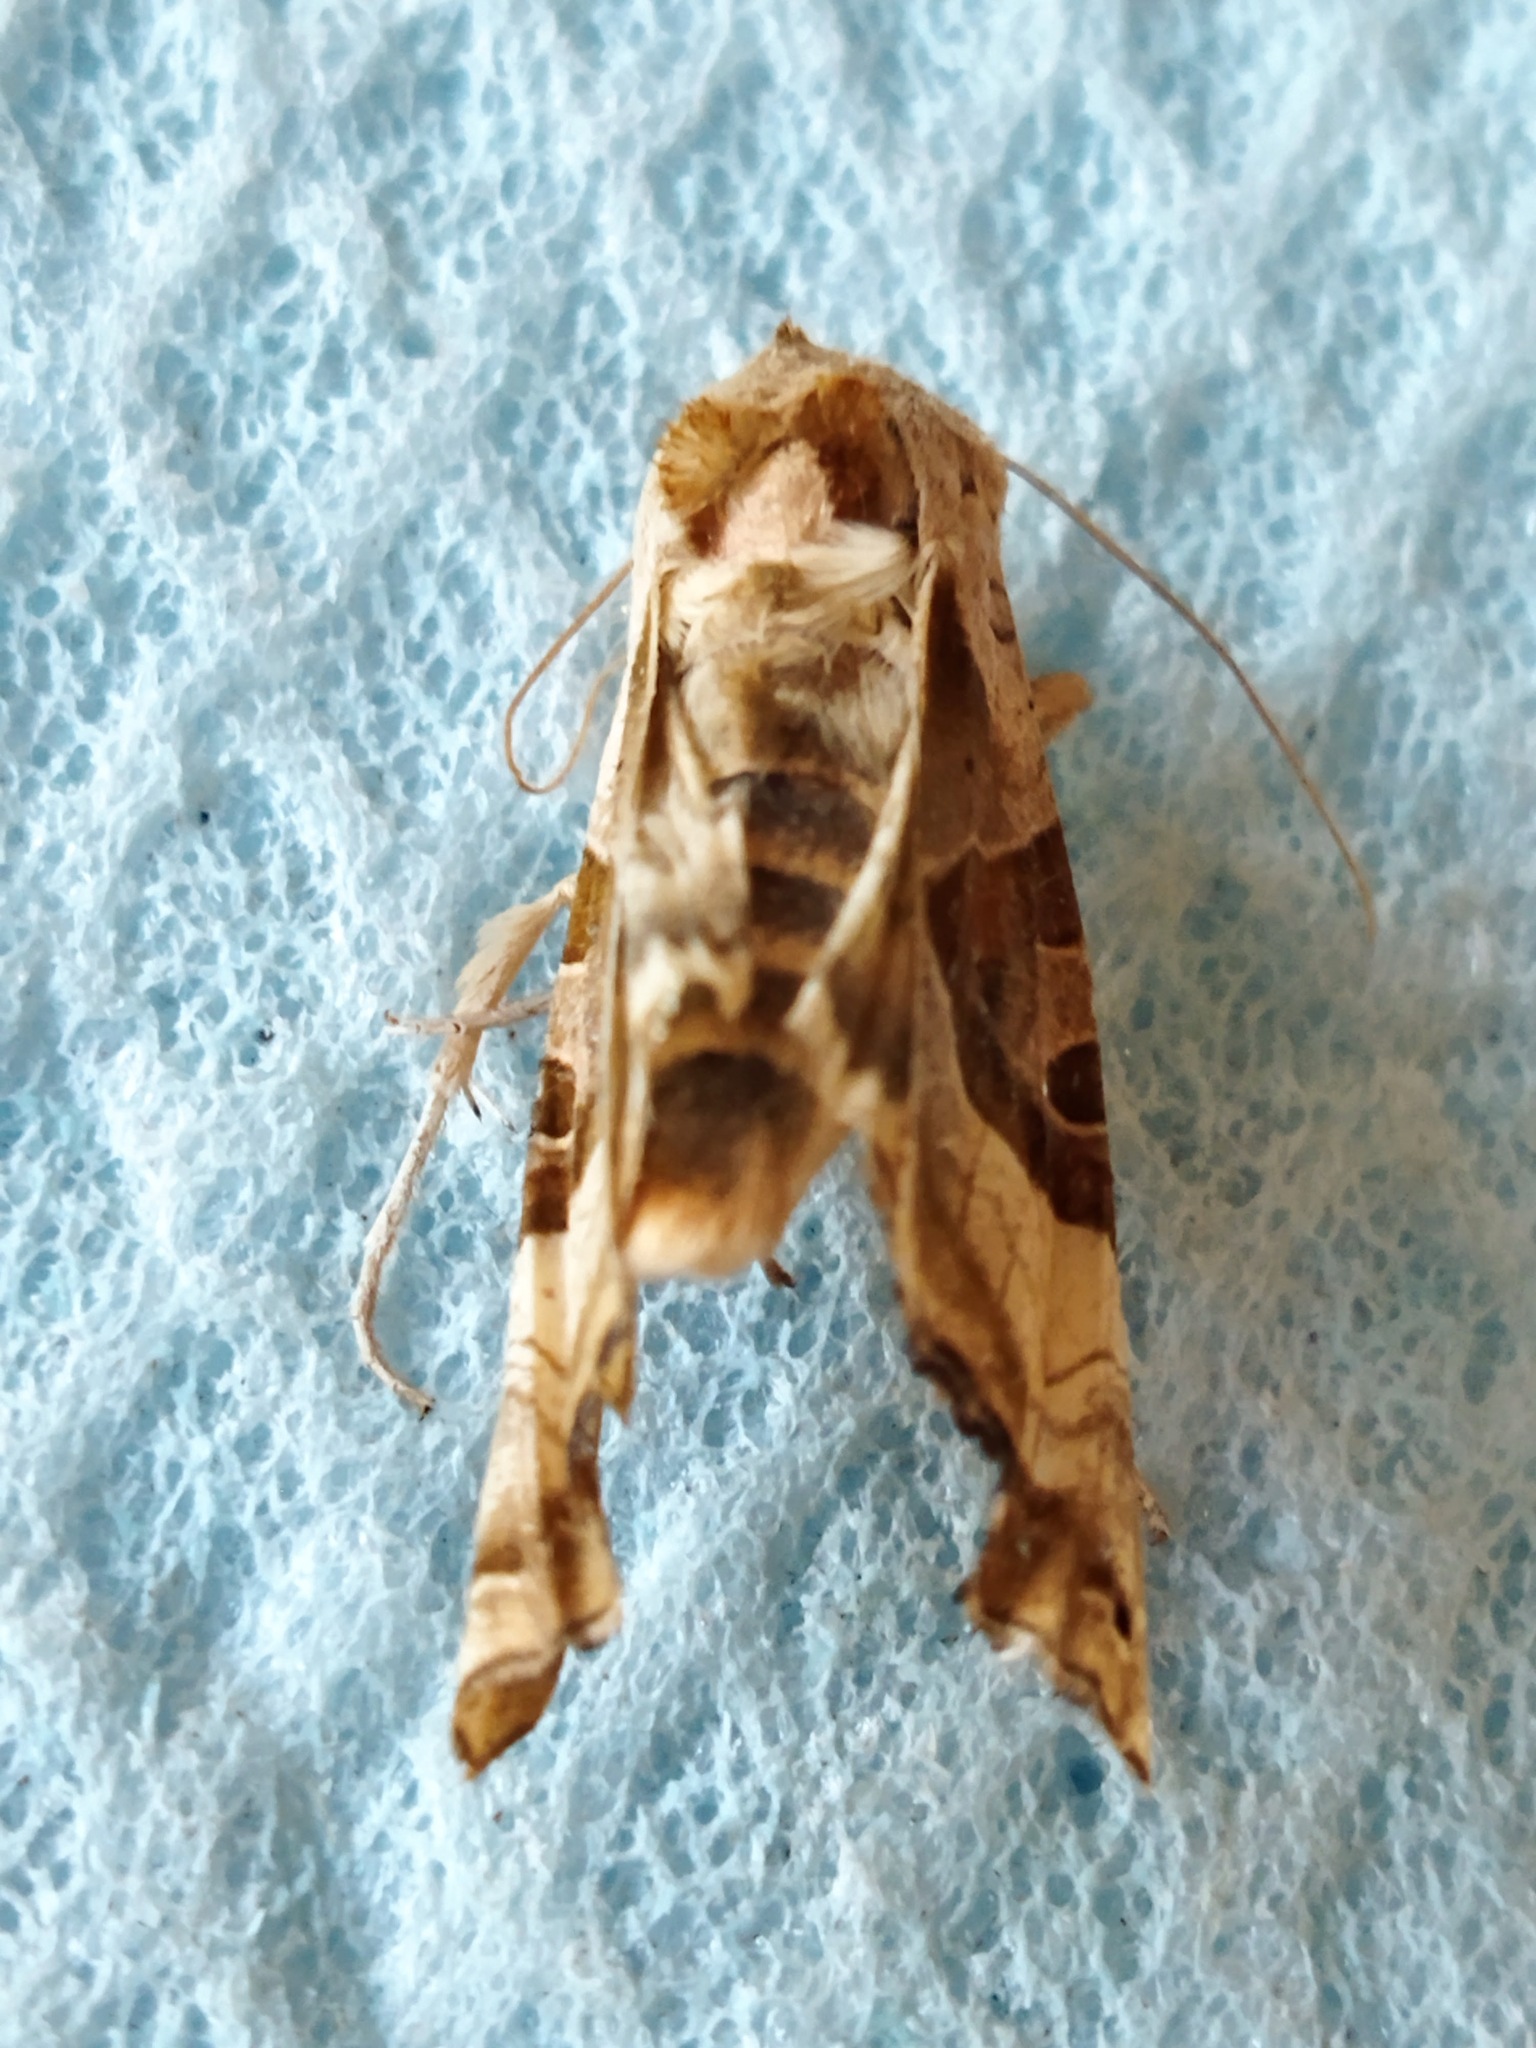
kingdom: Animalia
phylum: Arthropoda
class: Insecta
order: Lepidoptera
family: Noctuidae
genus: Phlogophora
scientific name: Phlogophora meticulosa
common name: Angle shades
